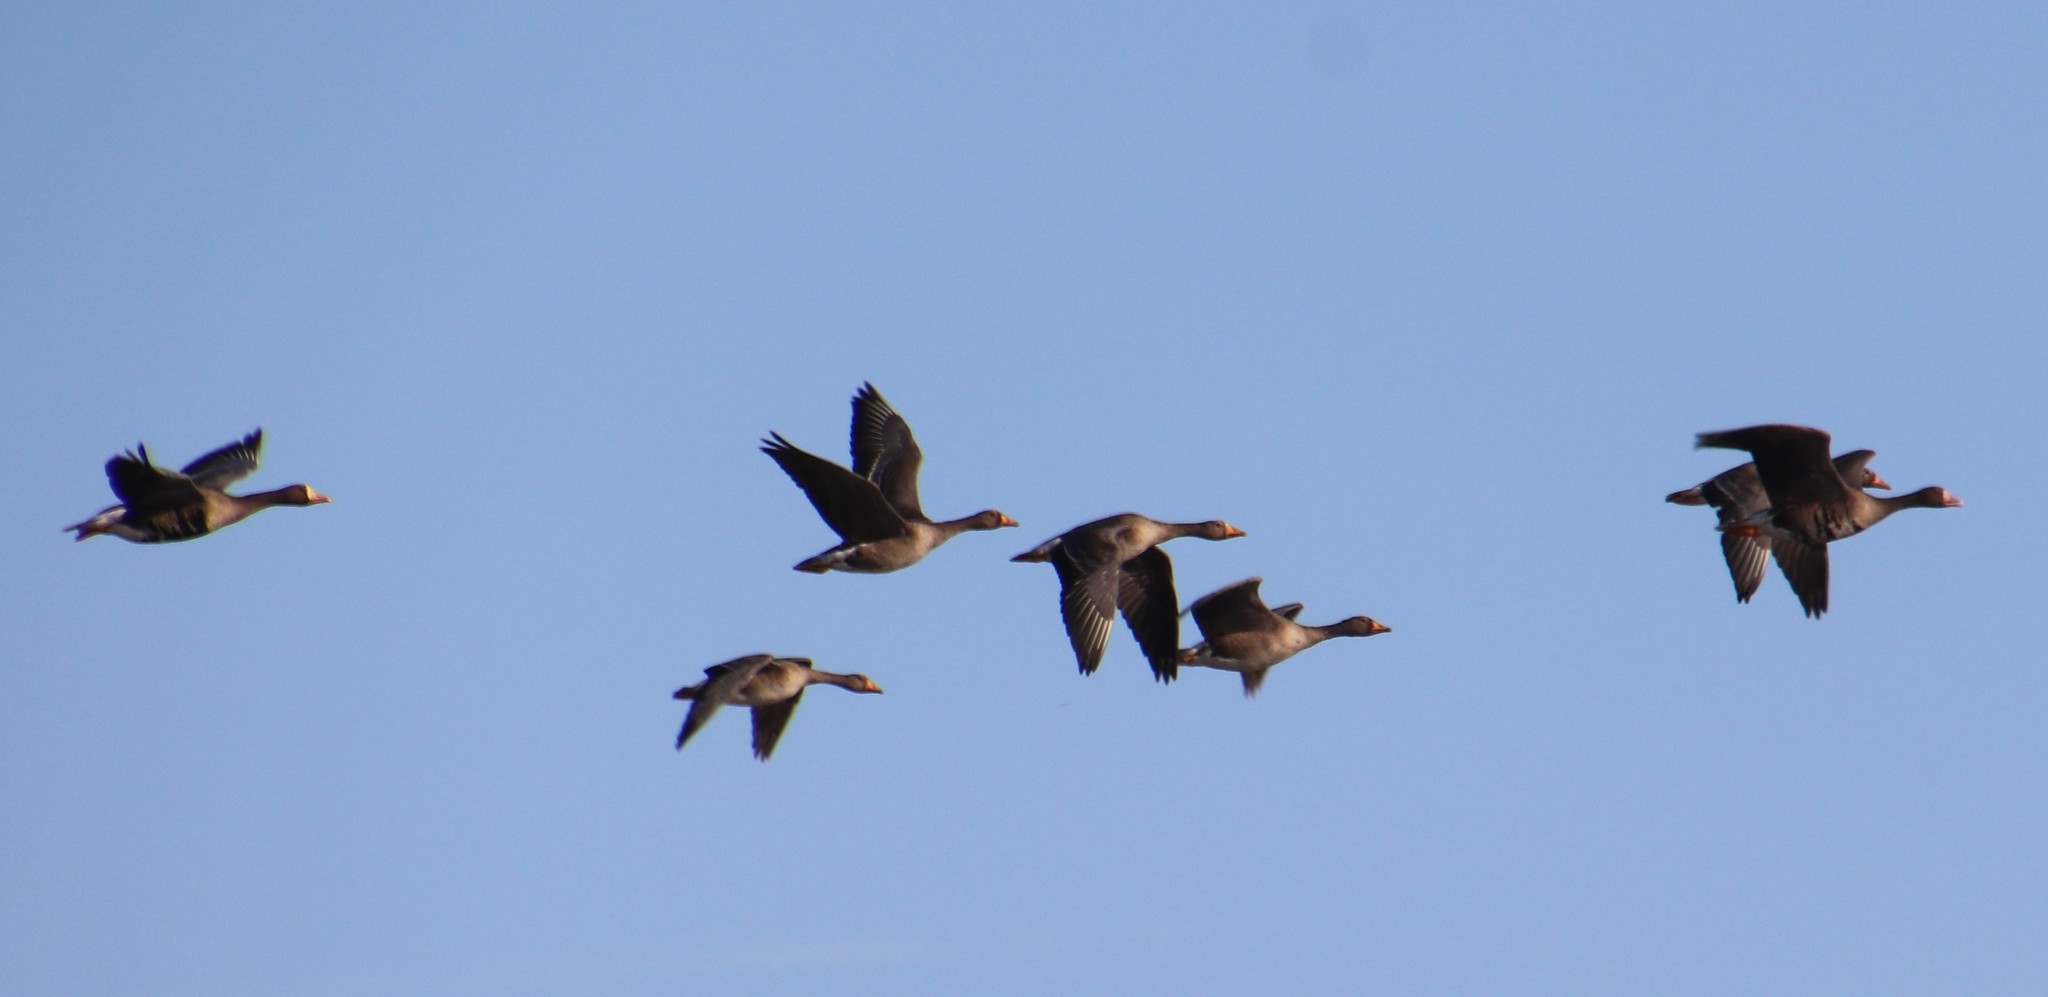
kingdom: Animalia
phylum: Chordata
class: Aves
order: Anseriformes
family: Anatidae
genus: Anser
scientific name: Anser albifrons
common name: Greater white-fronted goose
